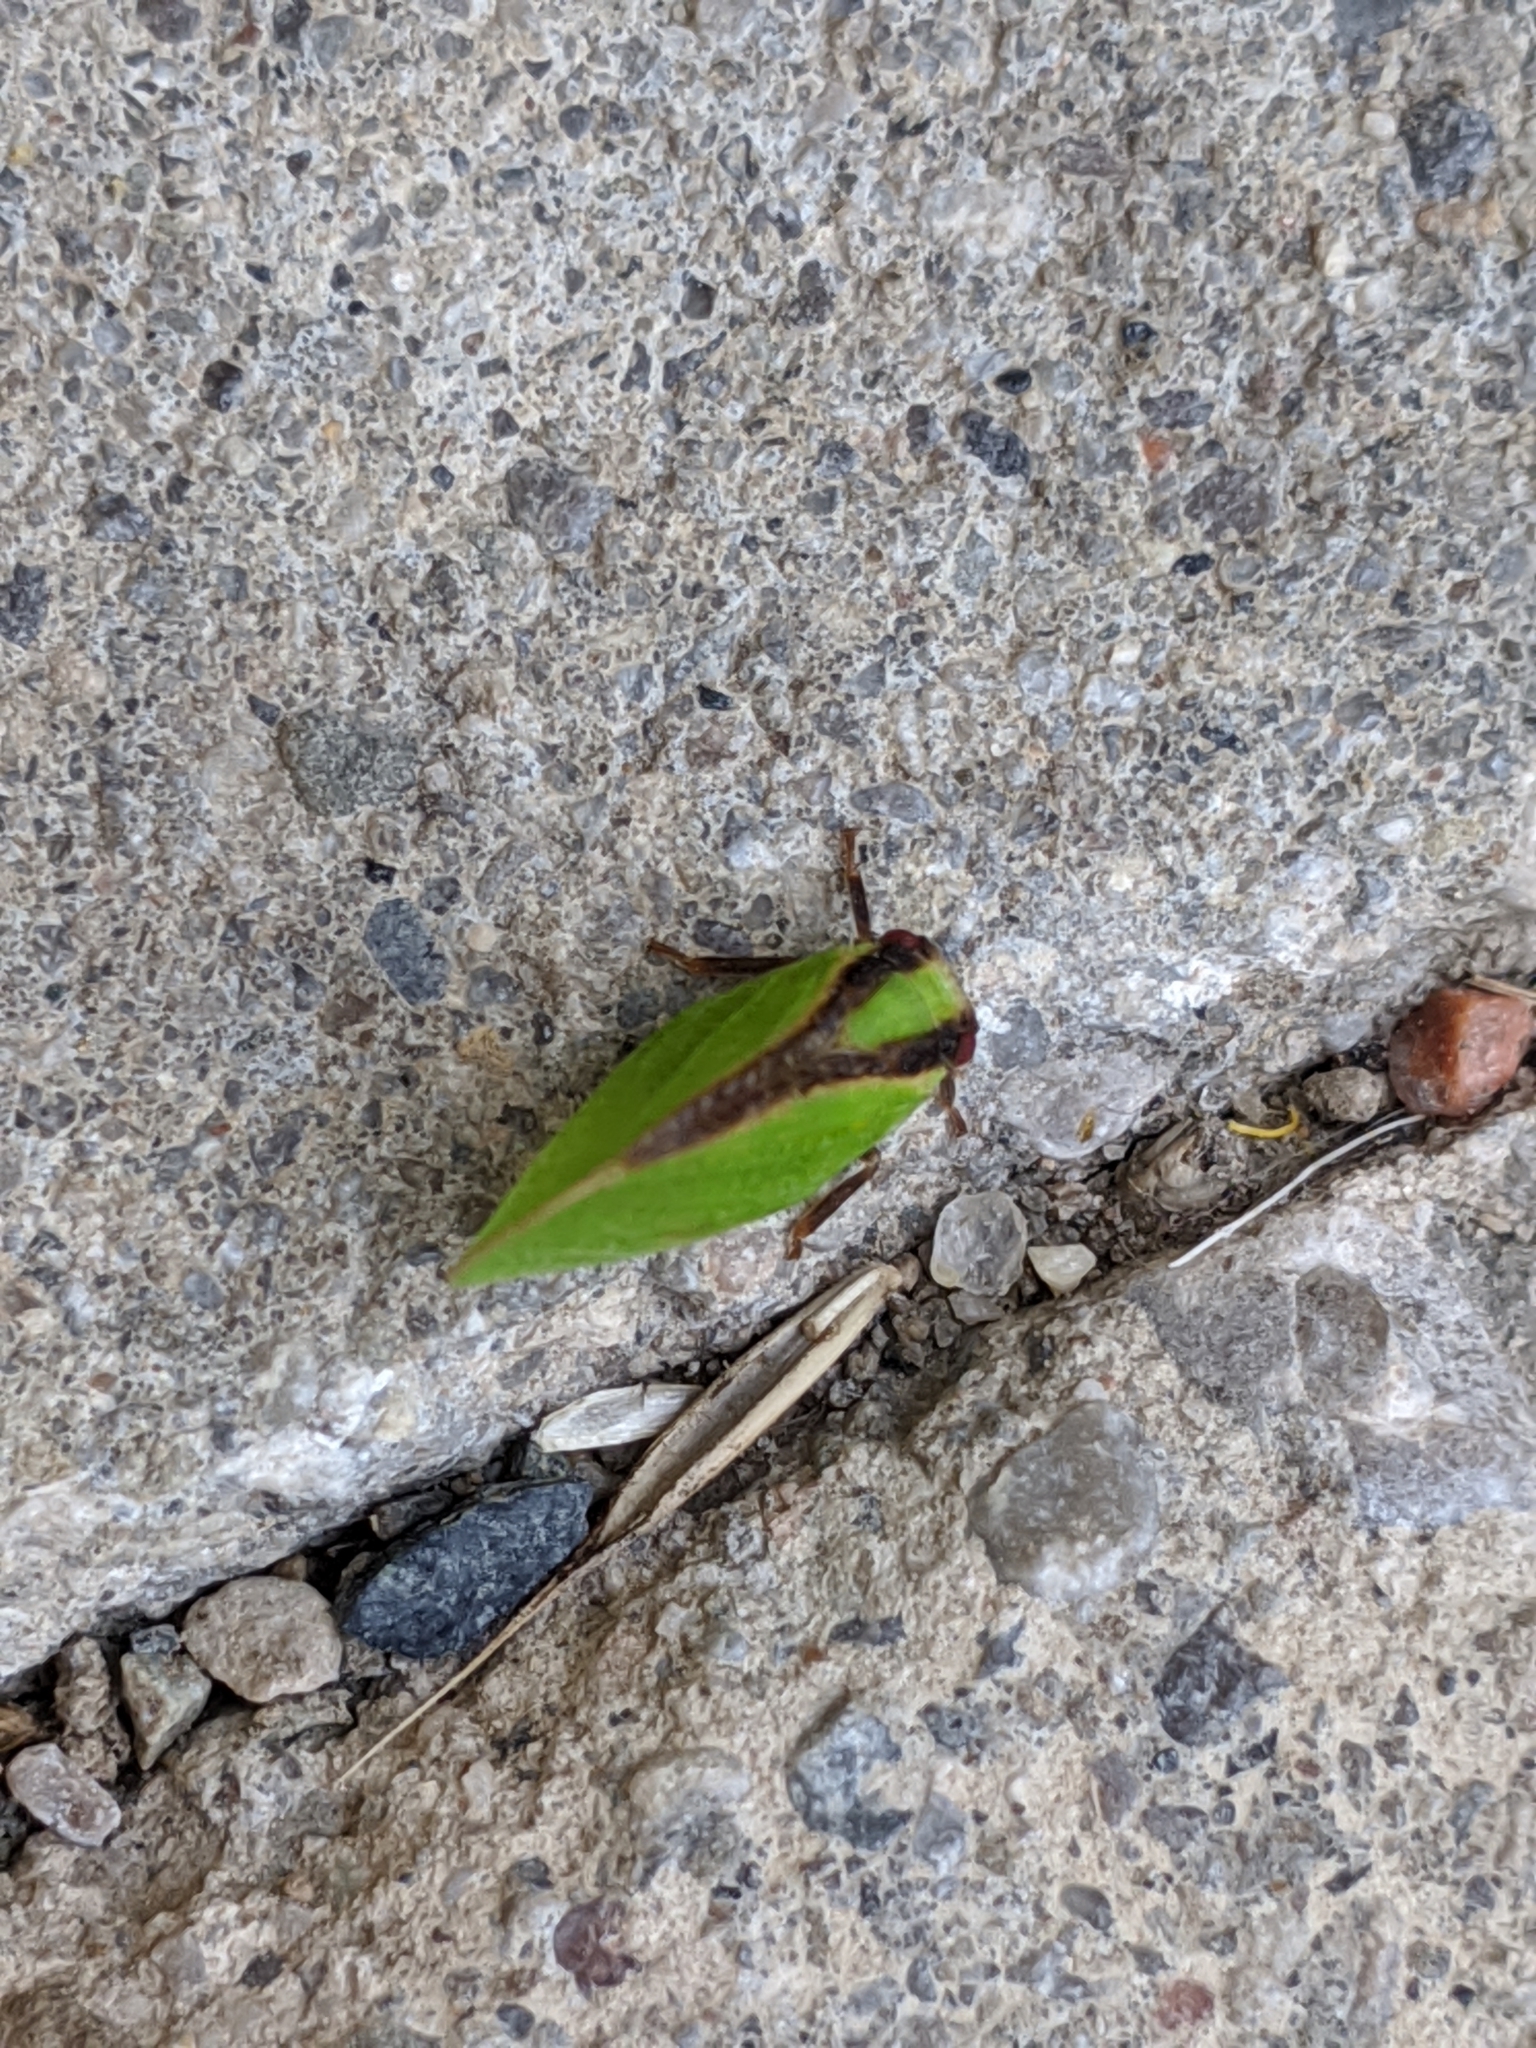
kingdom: Animalia
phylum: Arthropoda
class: Insecta
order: Hemiptera
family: Acanaloniidae
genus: Acanalonia
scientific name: Acanalonia bivittata
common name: Two-striped planthopper
